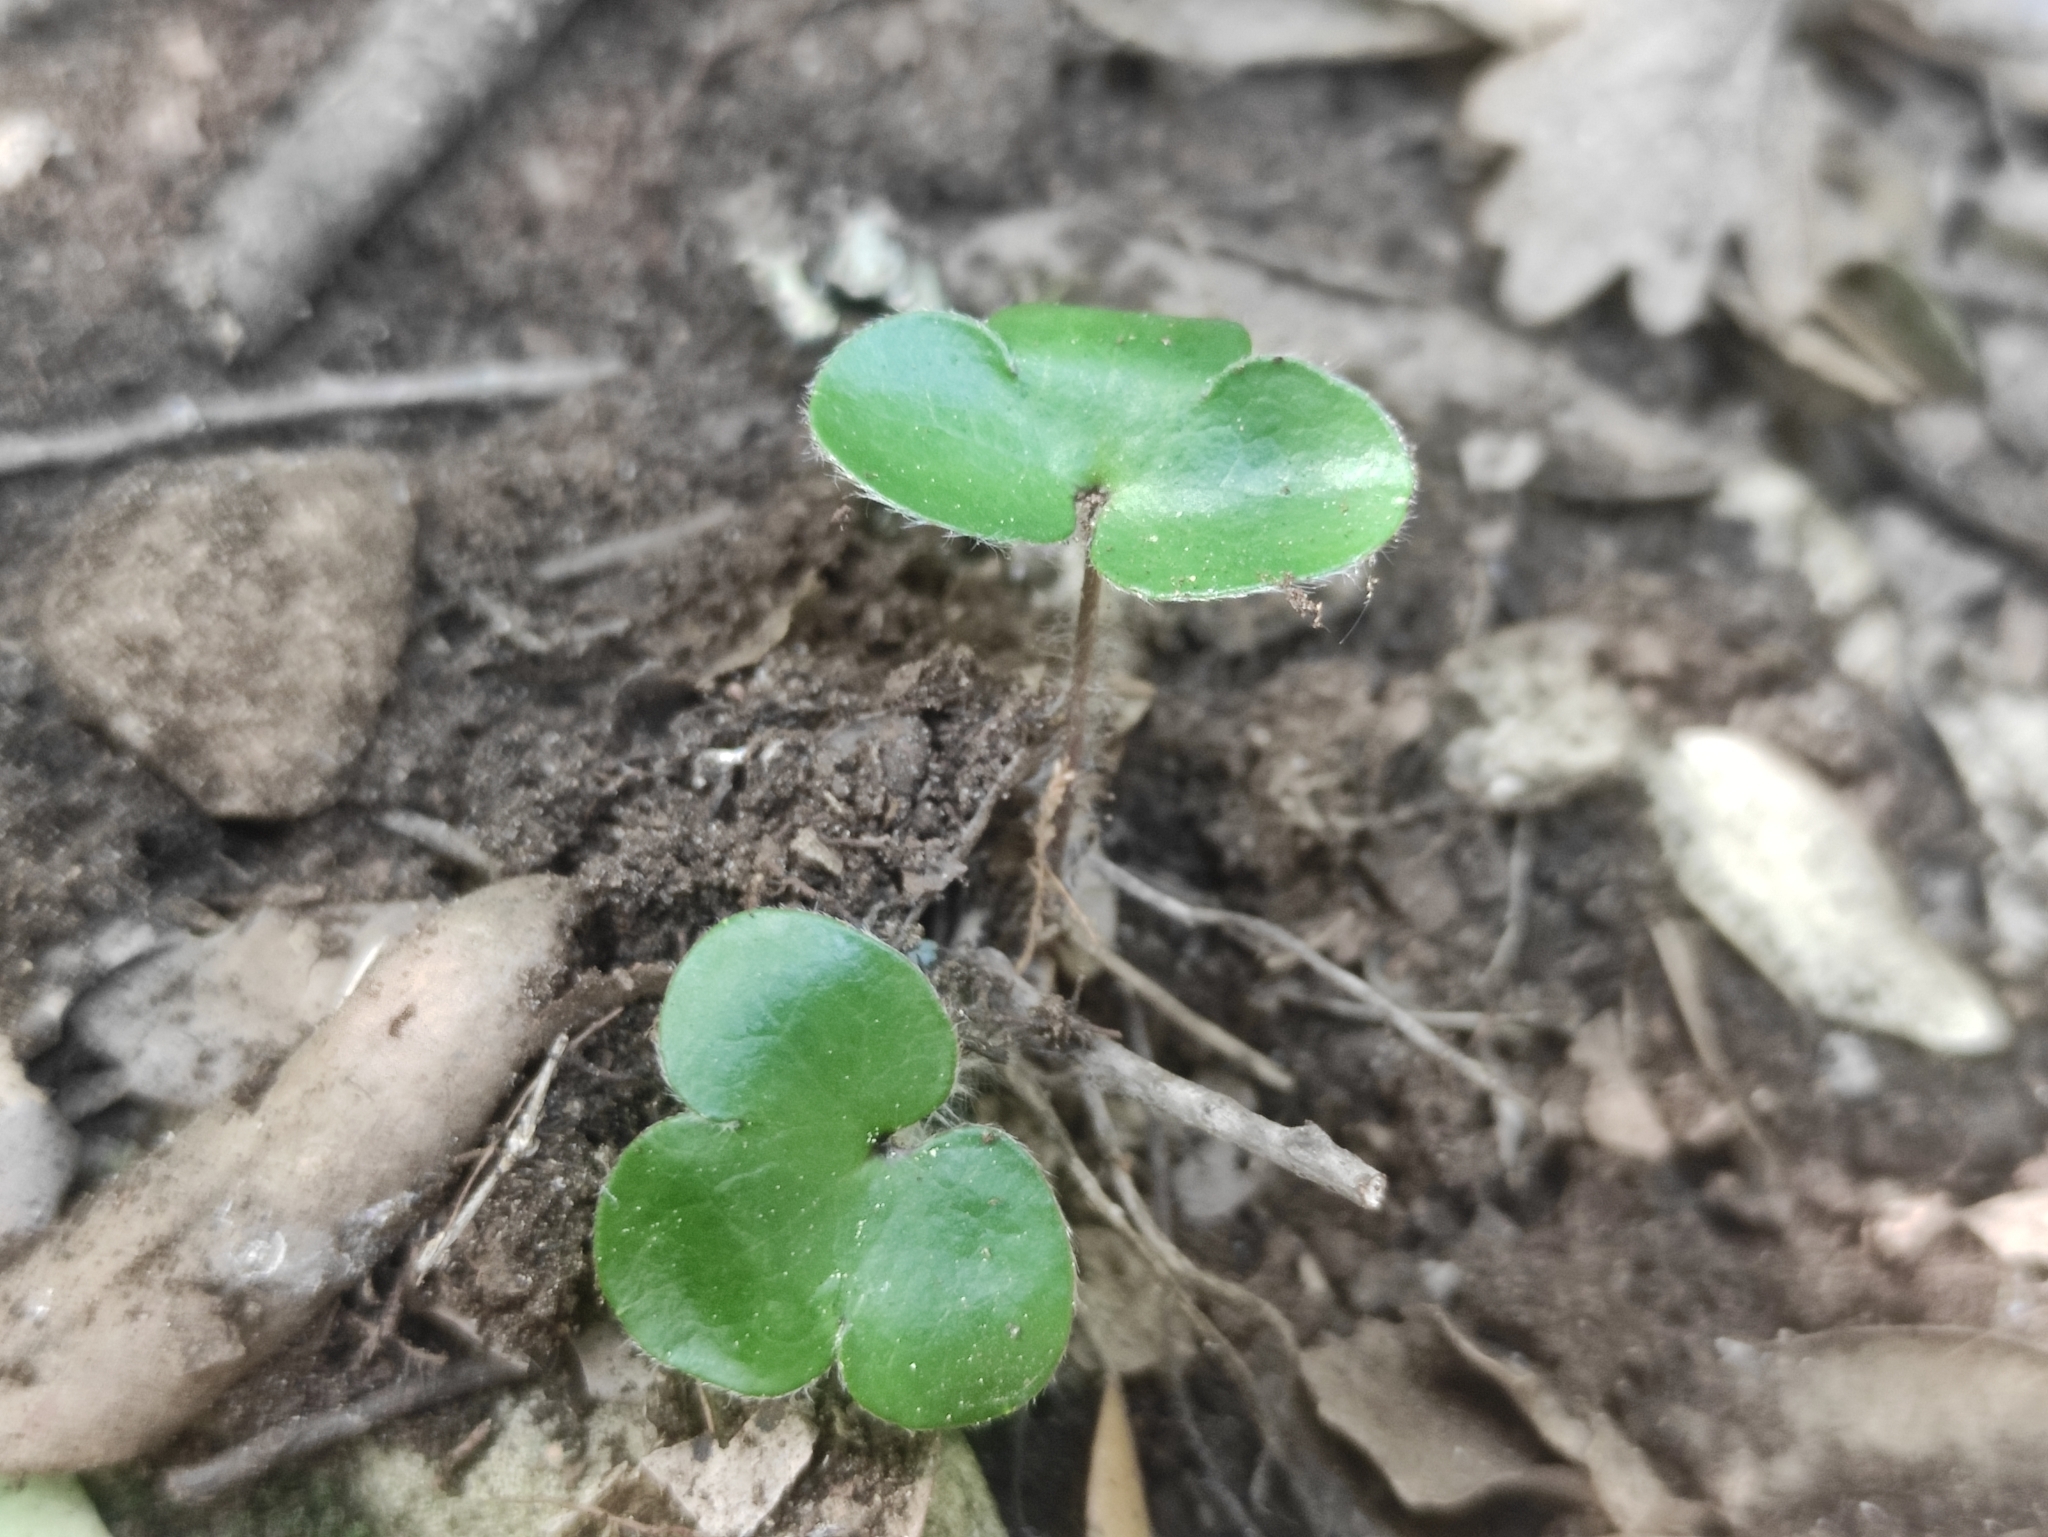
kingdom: Plantae
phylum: Tracheophyta
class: Magnoliopsida
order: Ranunculales
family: Ranunculaceae
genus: Hepatica
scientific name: Hepatica nobilis
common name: Liverleaf
